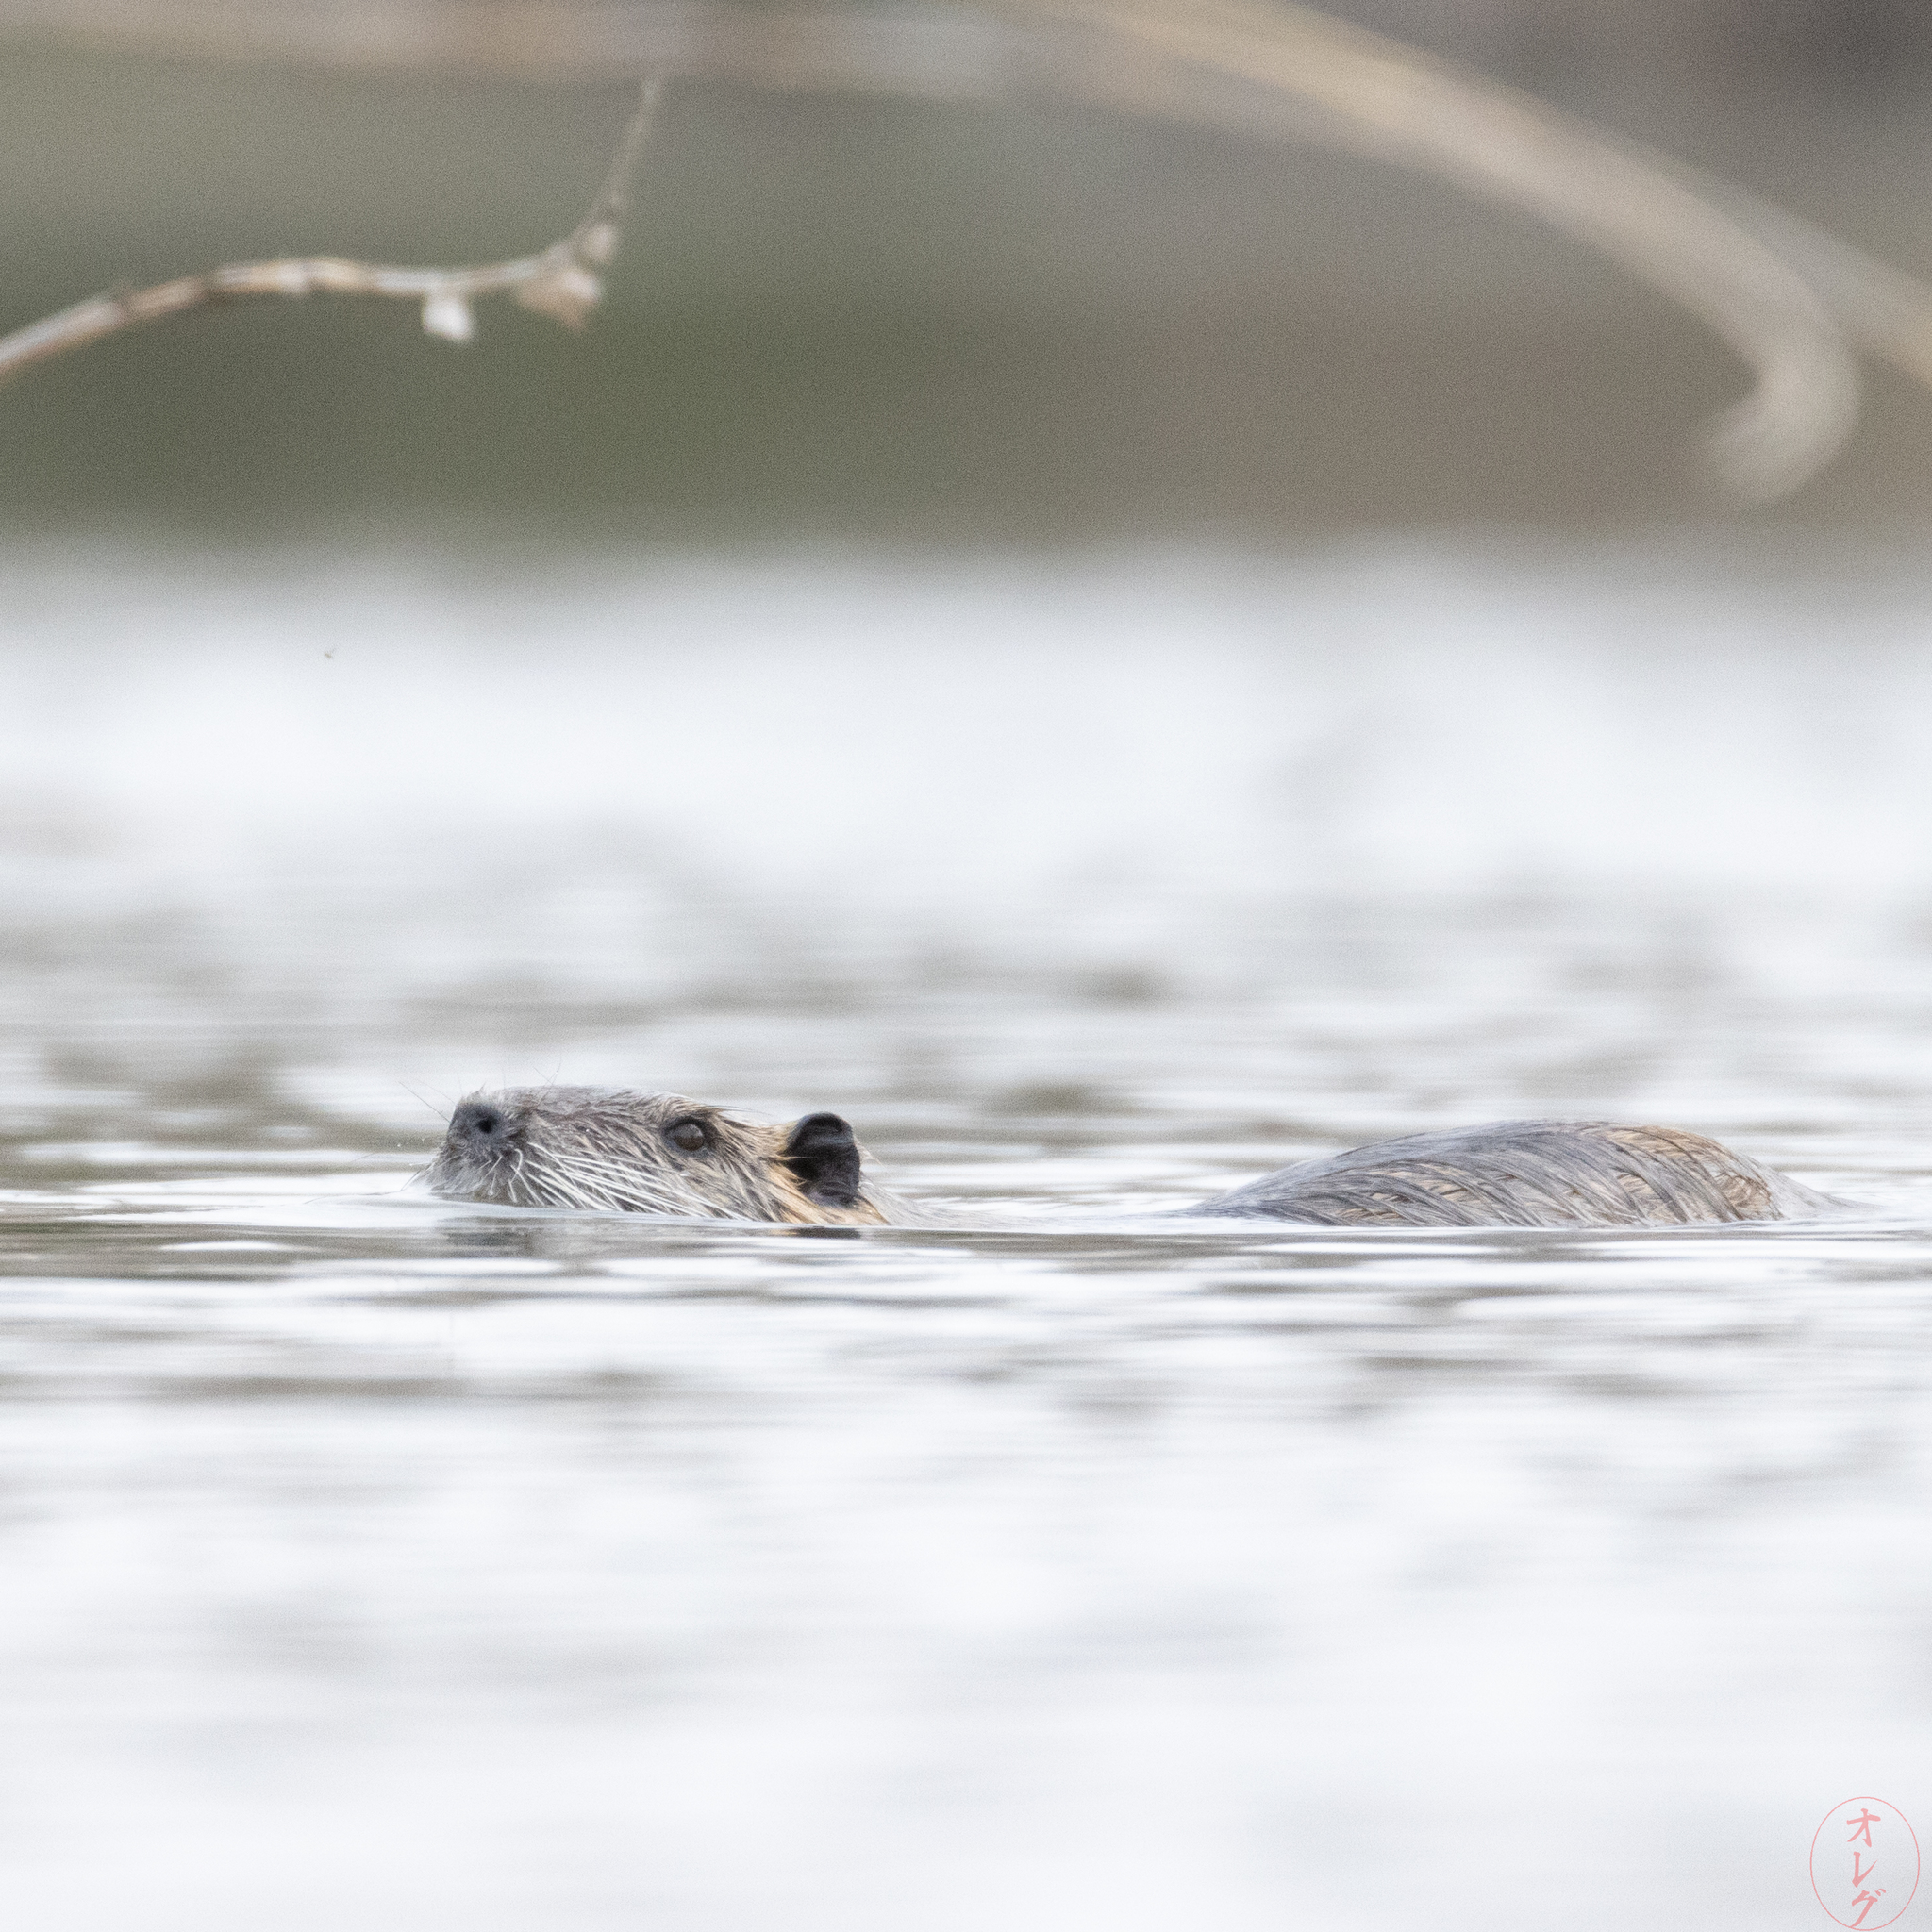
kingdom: Animalia
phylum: Chordata
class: Mammalia
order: Rodentia
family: Myocastoridae
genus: Myocastor
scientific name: Myocastor coypus
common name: Coypu
